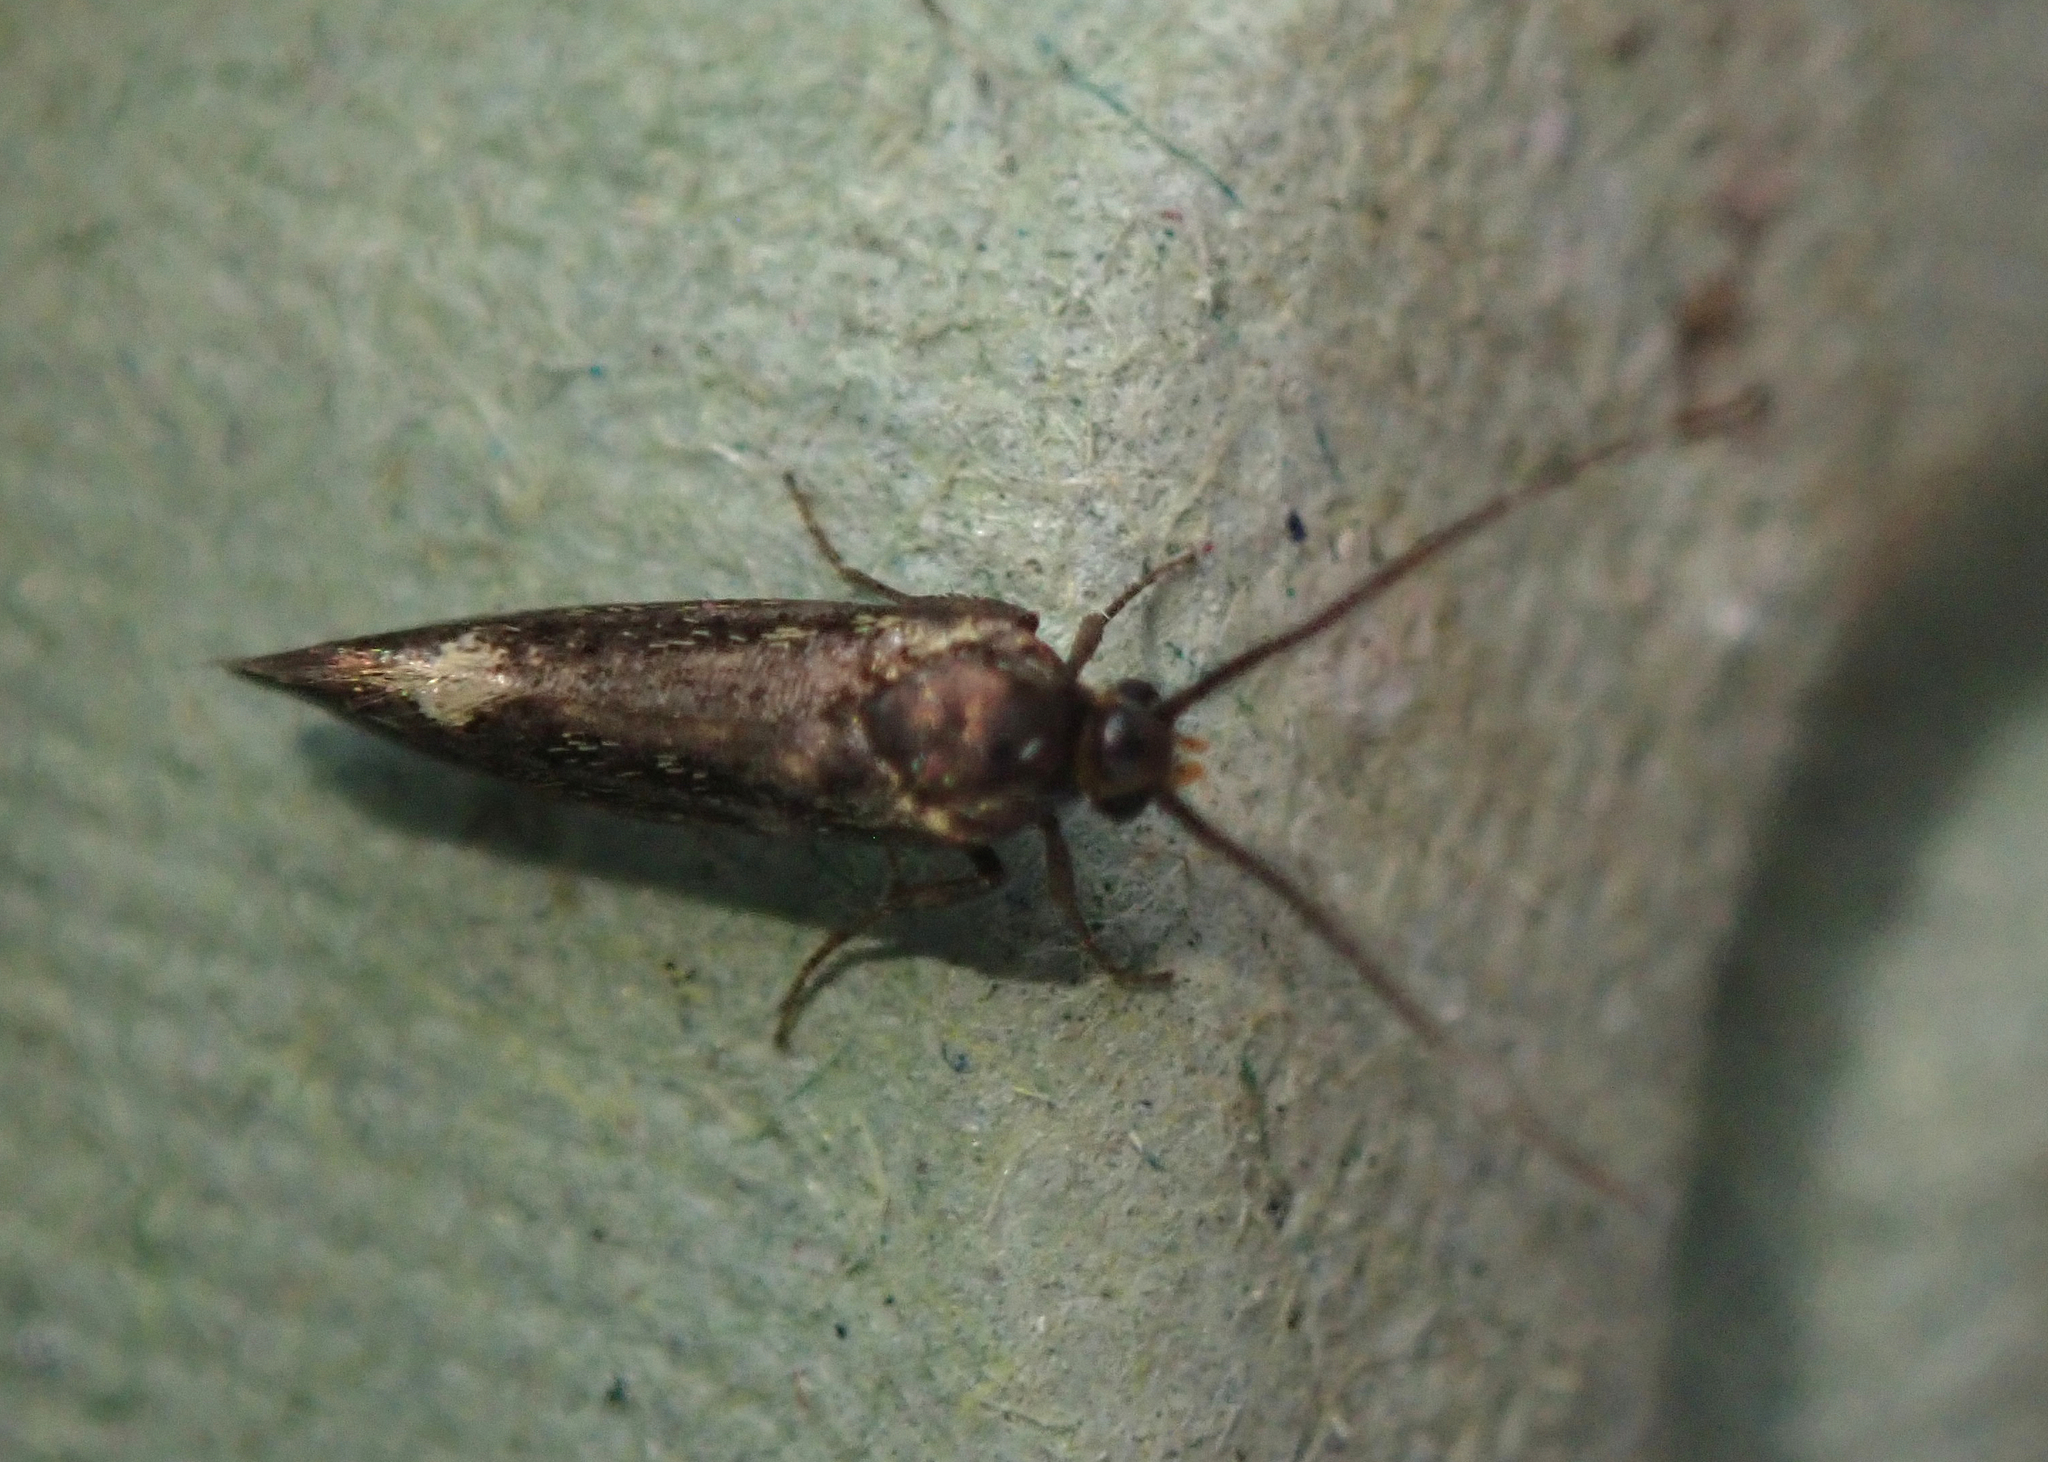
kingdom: Animalia
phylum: Arthropoda
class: Insecta
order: Lepidoptera
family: Oecophoridae
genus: Dafa
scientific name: Dafa Esperia sulphurella
